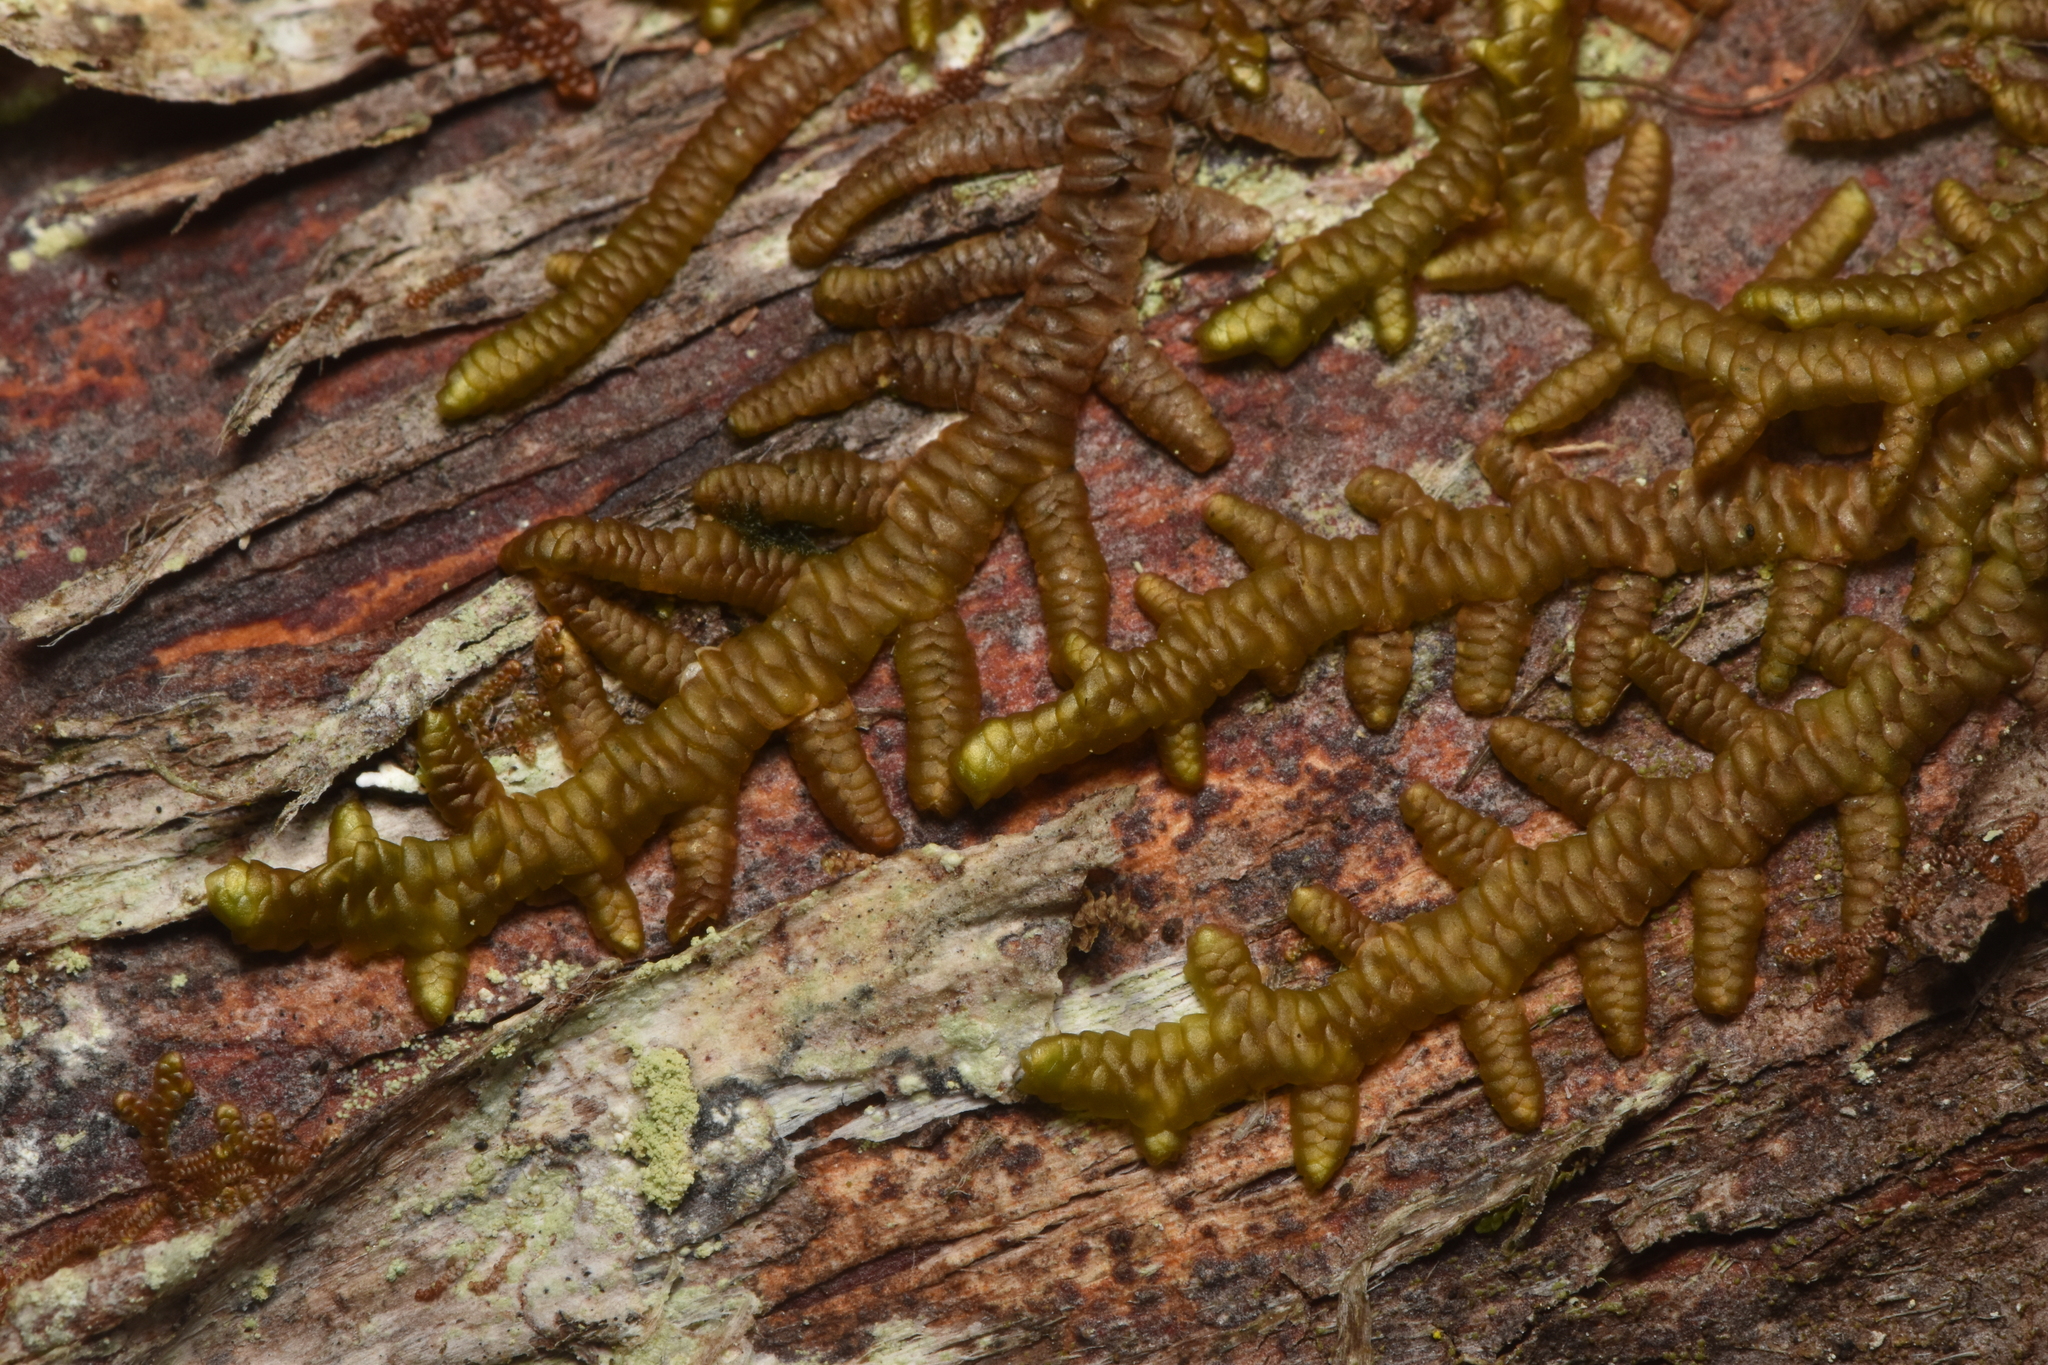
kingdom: Plantae
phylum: Marchantiophyta
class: Jungermanniopsida
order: Porellales
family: Porellaceae
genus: Porella
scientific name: Porella navicularis
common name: Tree ruffle liverwort
